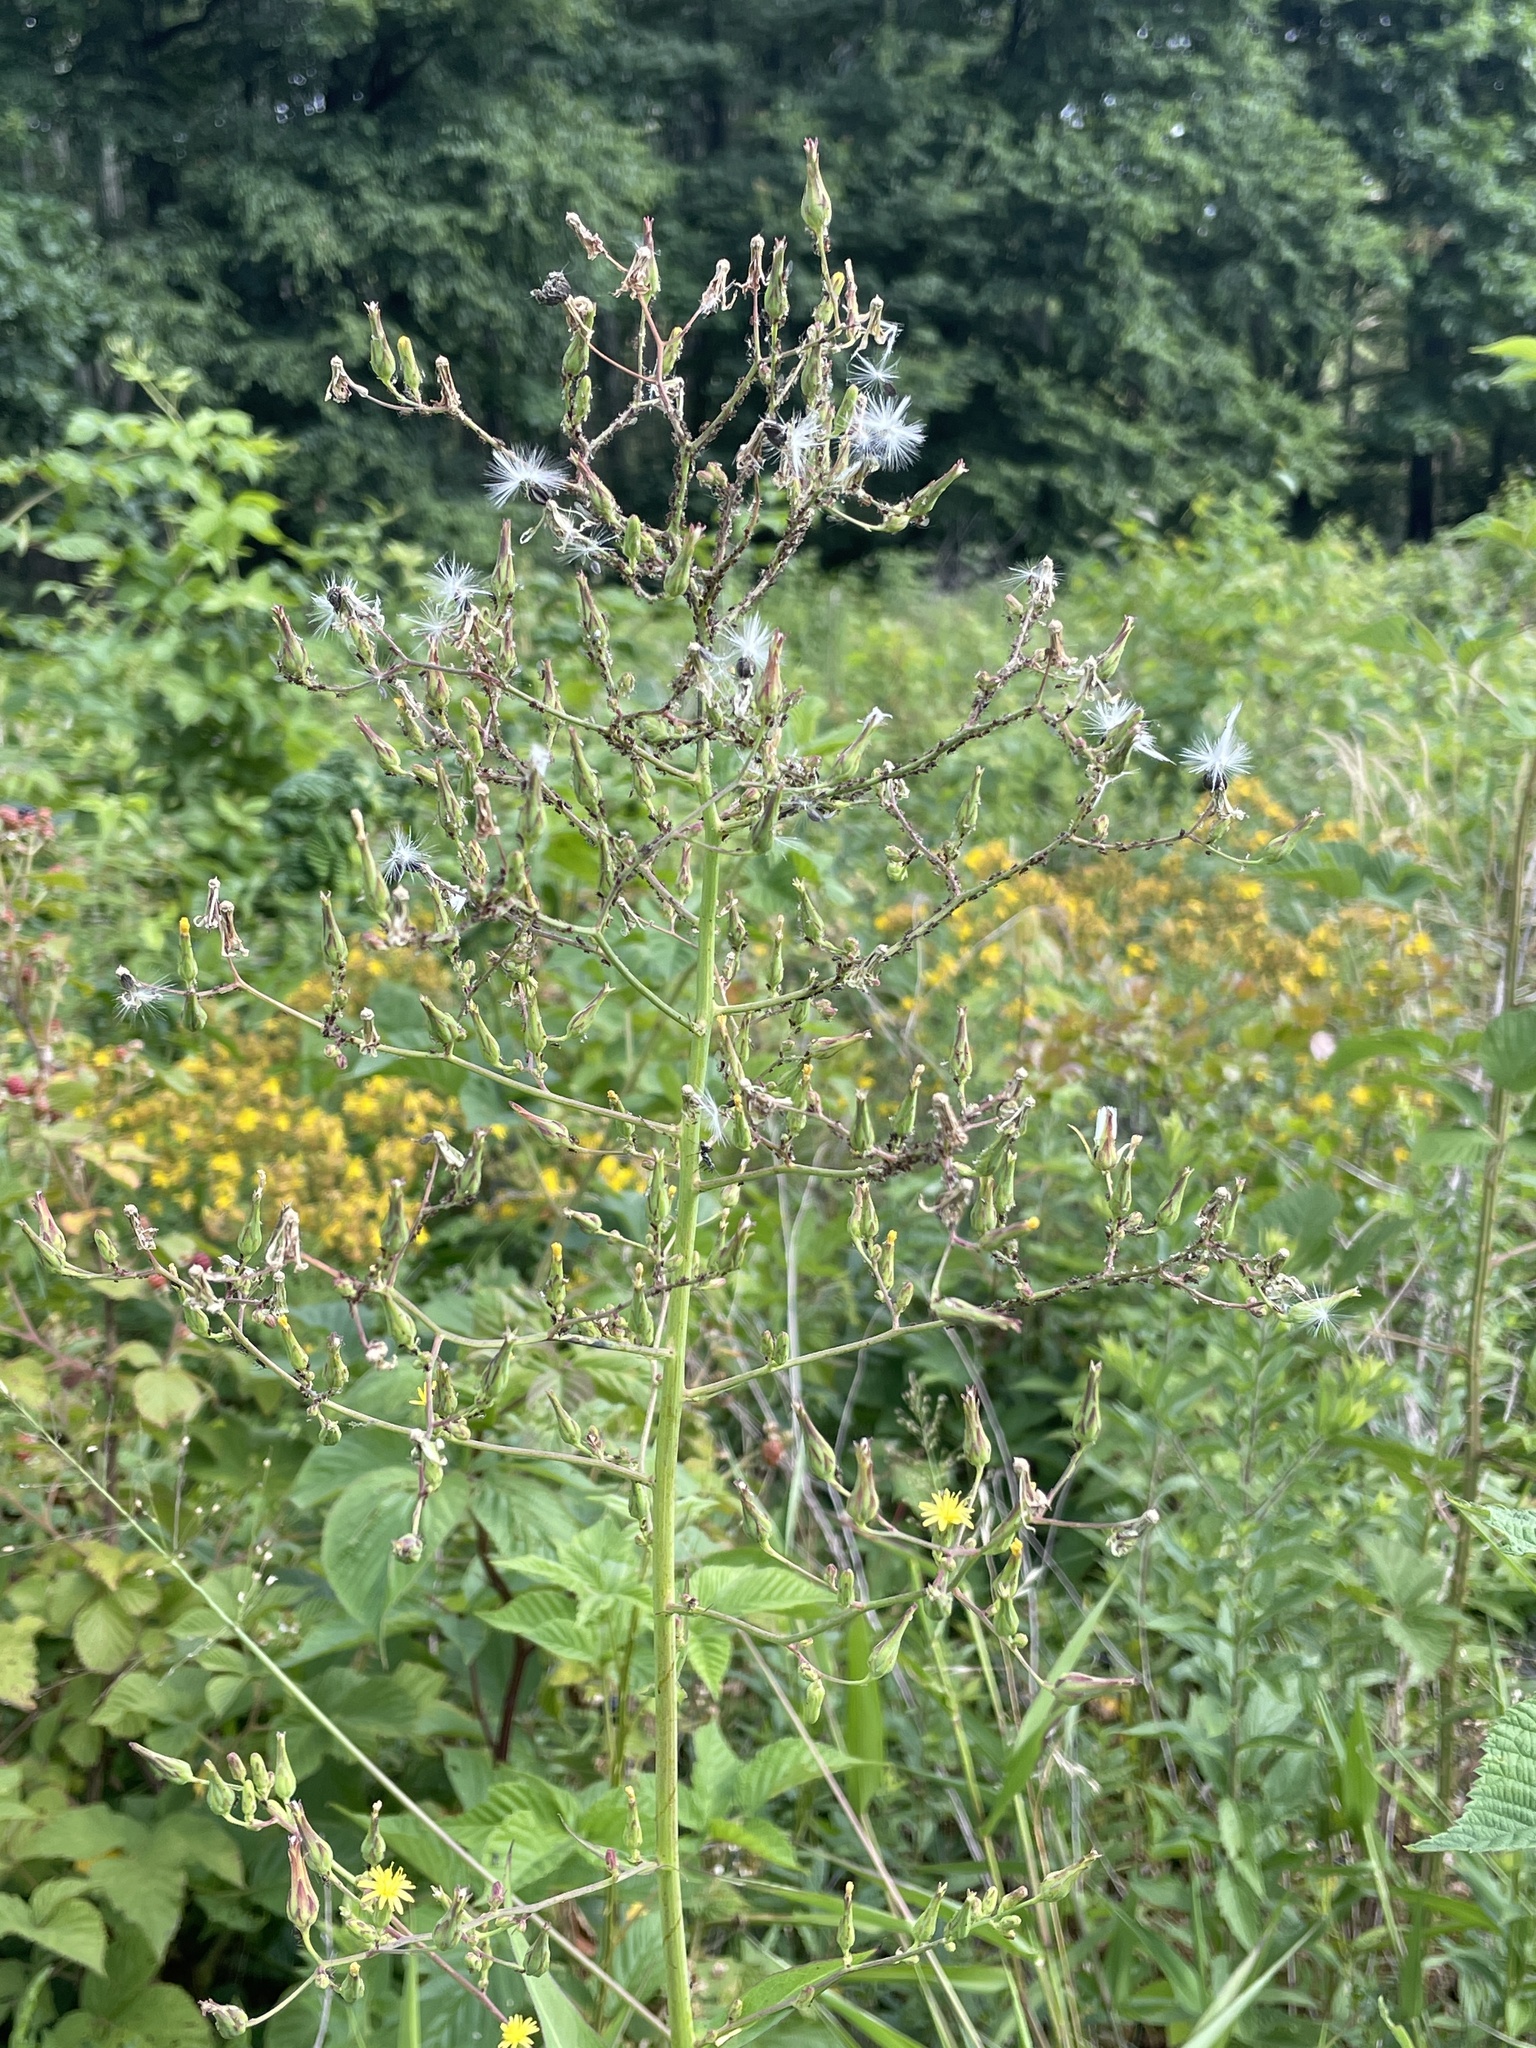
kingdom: Plantae
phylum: Tracheophyta
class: Magnoliopsida
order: Asterales
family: Asteraceae
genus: Lactuca
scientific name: Lactuca canadensis
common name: Canada lettuce
